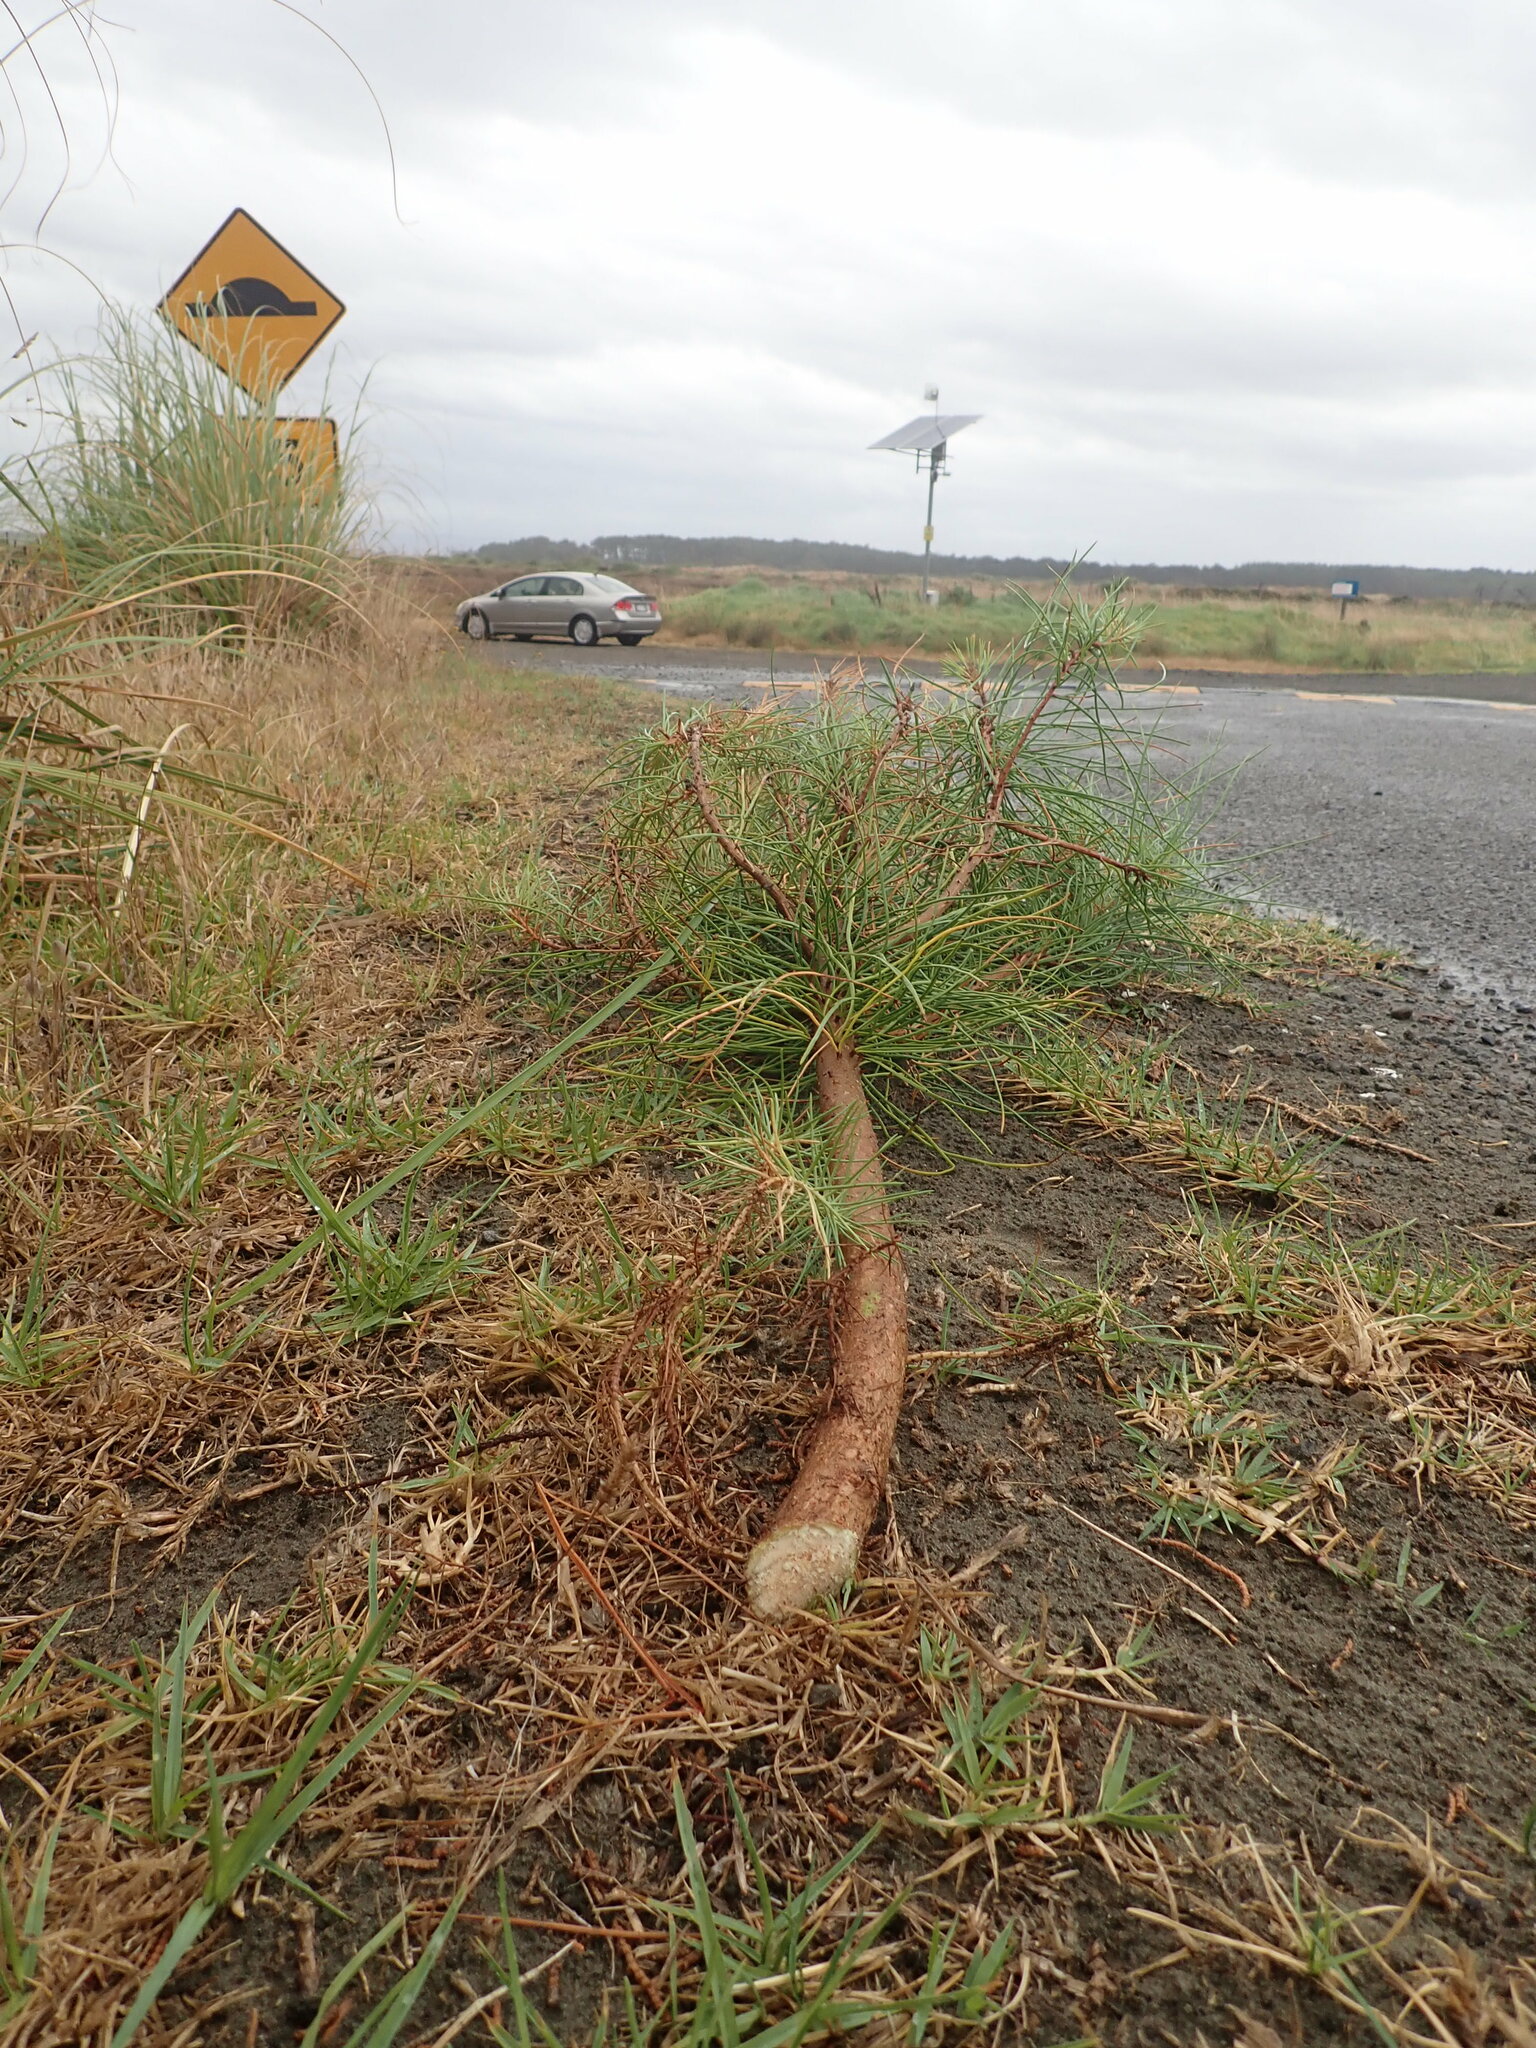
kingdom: Plantae
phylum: Tracheophyta
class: Pinopsida
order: Pinales
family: Pinaceae
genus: Pinus
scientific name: Pinus pinaster
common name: Maritime pine
